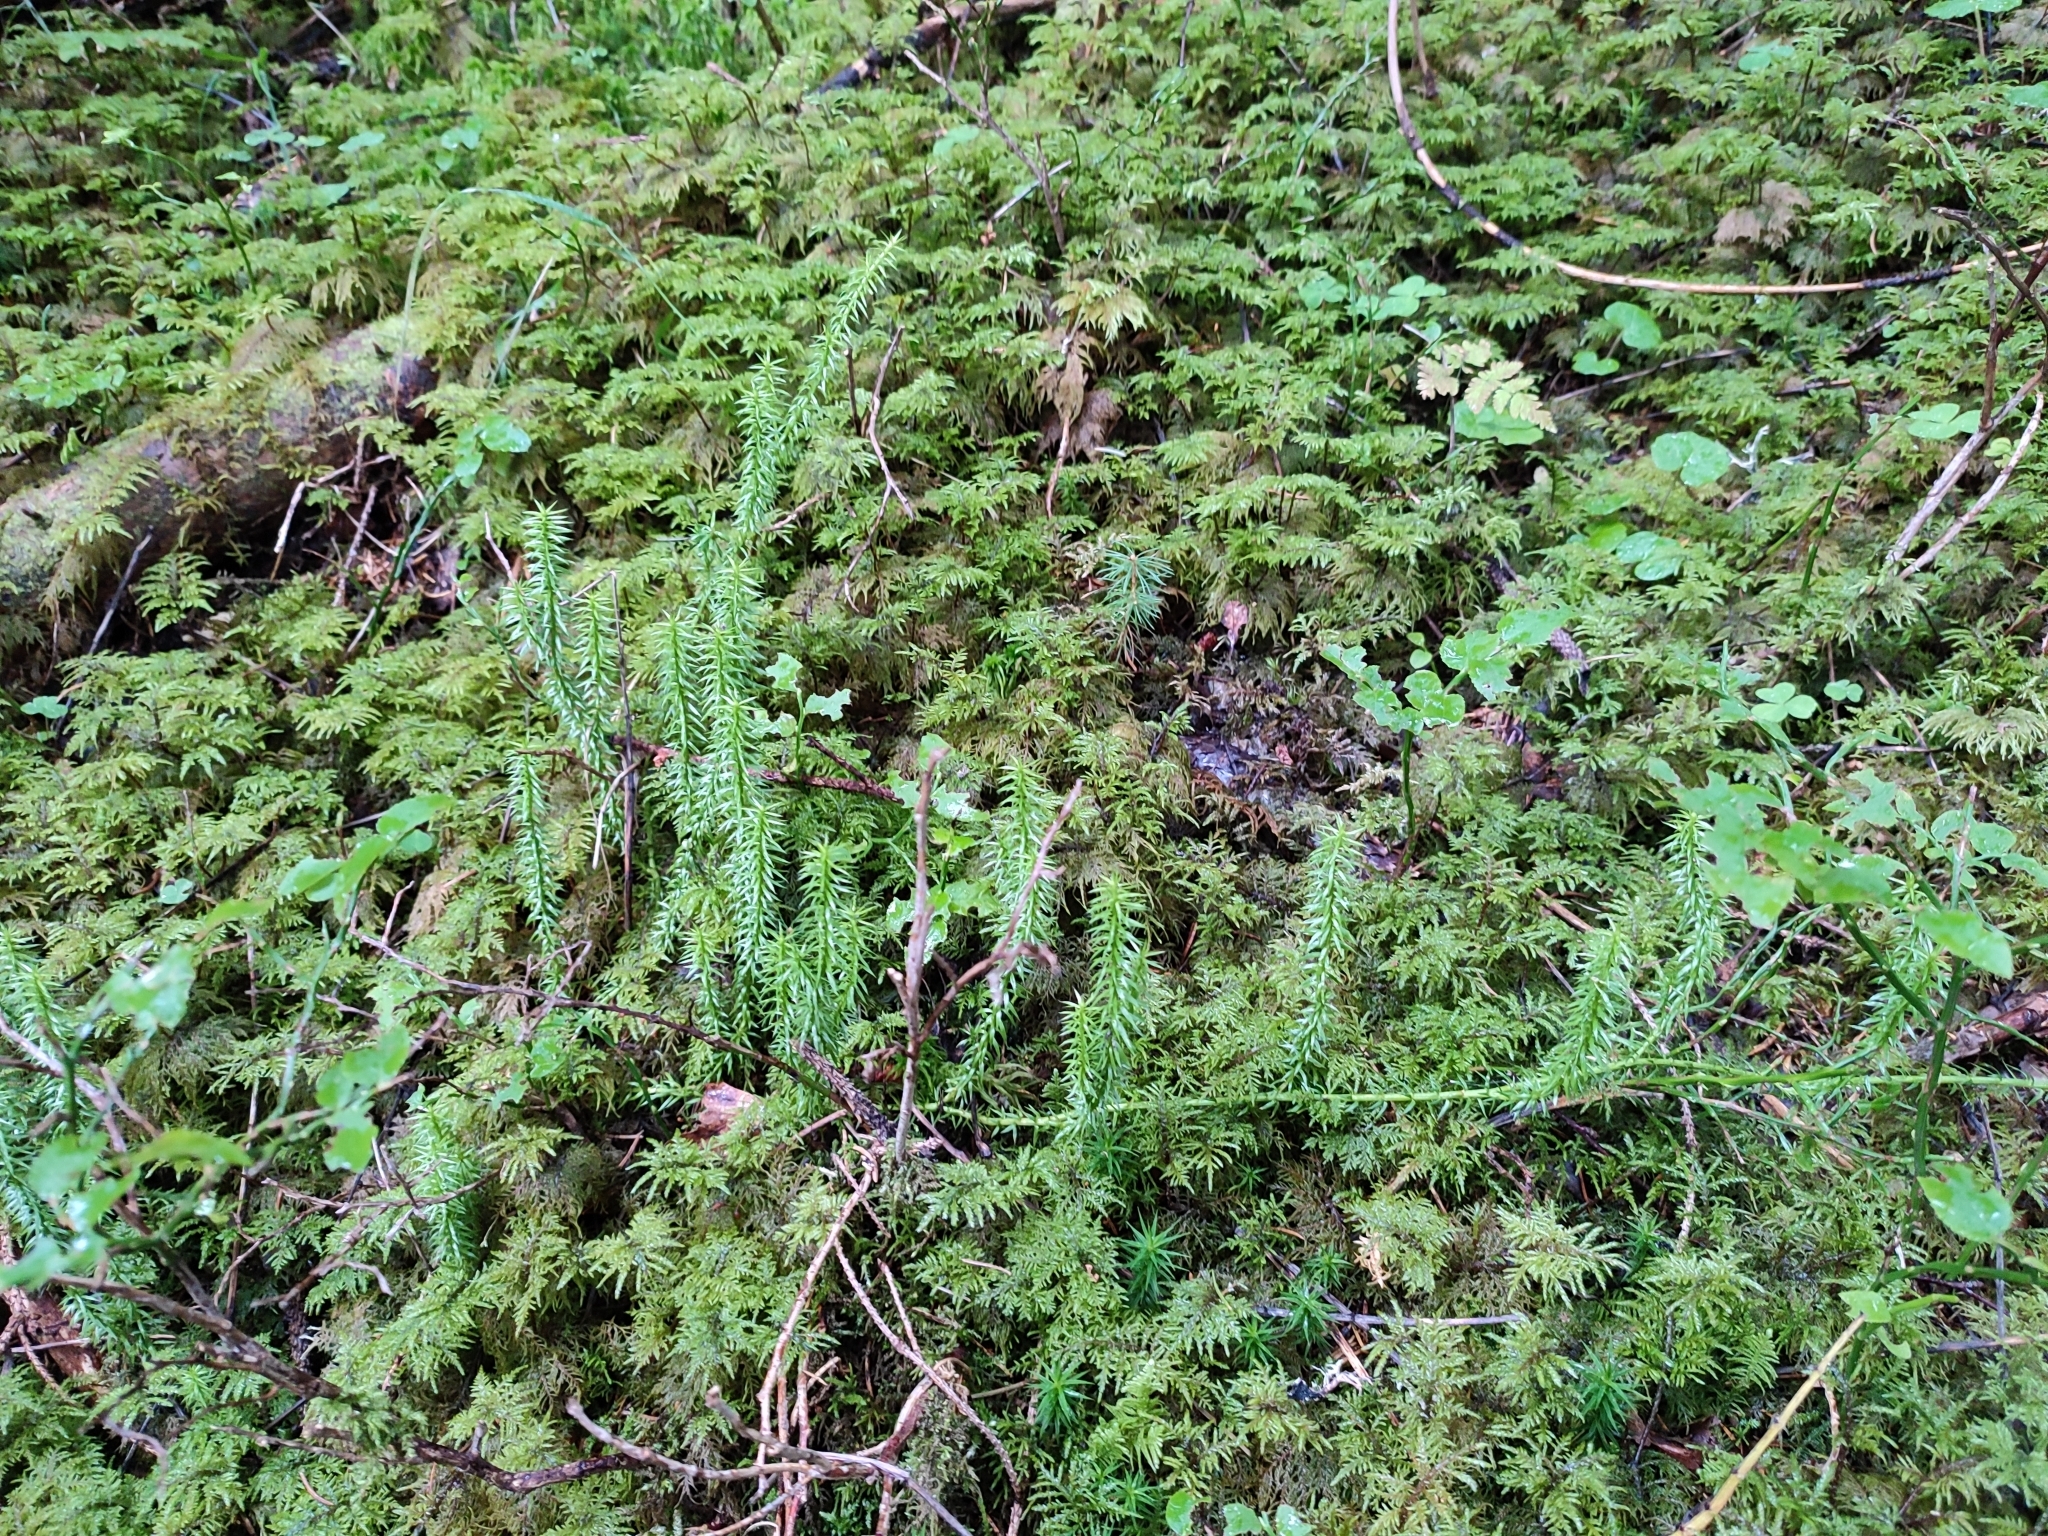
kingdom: Plantae
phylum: Tracheophyta
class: Lycopodiopsida
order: Lycopodiales
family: Lycopodiaceae
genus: Spinulum
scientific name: Spinulum annotinum
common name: Interrupted club-moss
